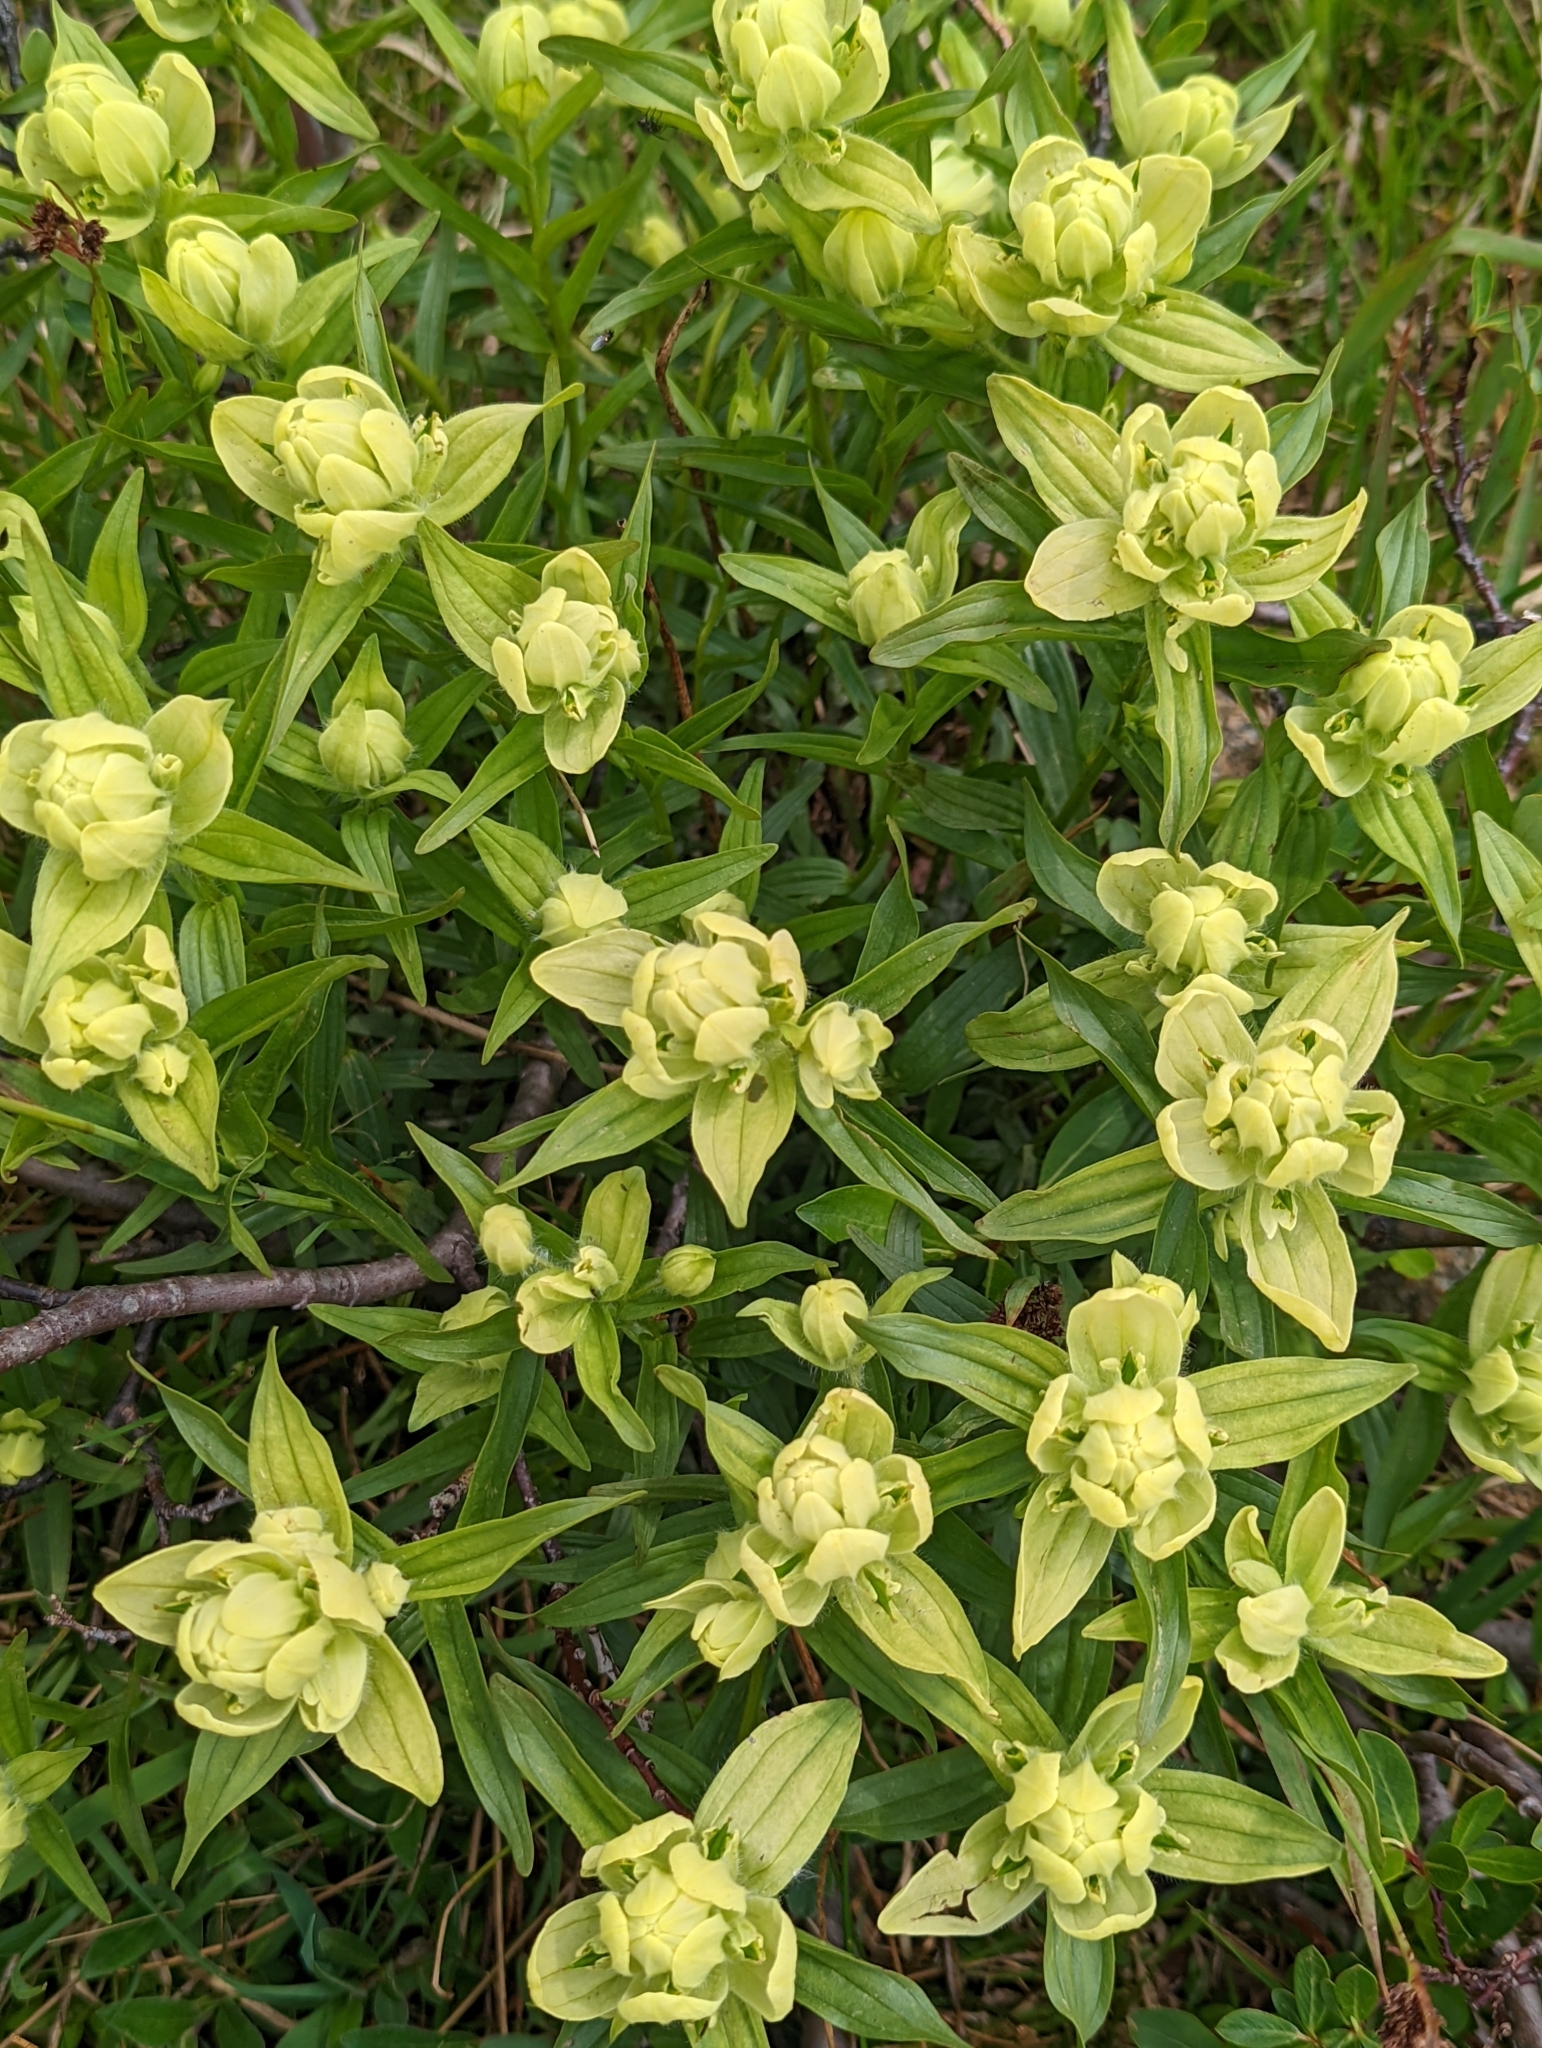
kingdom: Plantae
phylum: Tracheophyta
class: Magnoliopsida
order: Lamiales
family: Orobanchaceae
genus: Castilleja
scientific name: Castilleja septentrionalis
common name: Northeastern paintbrush
